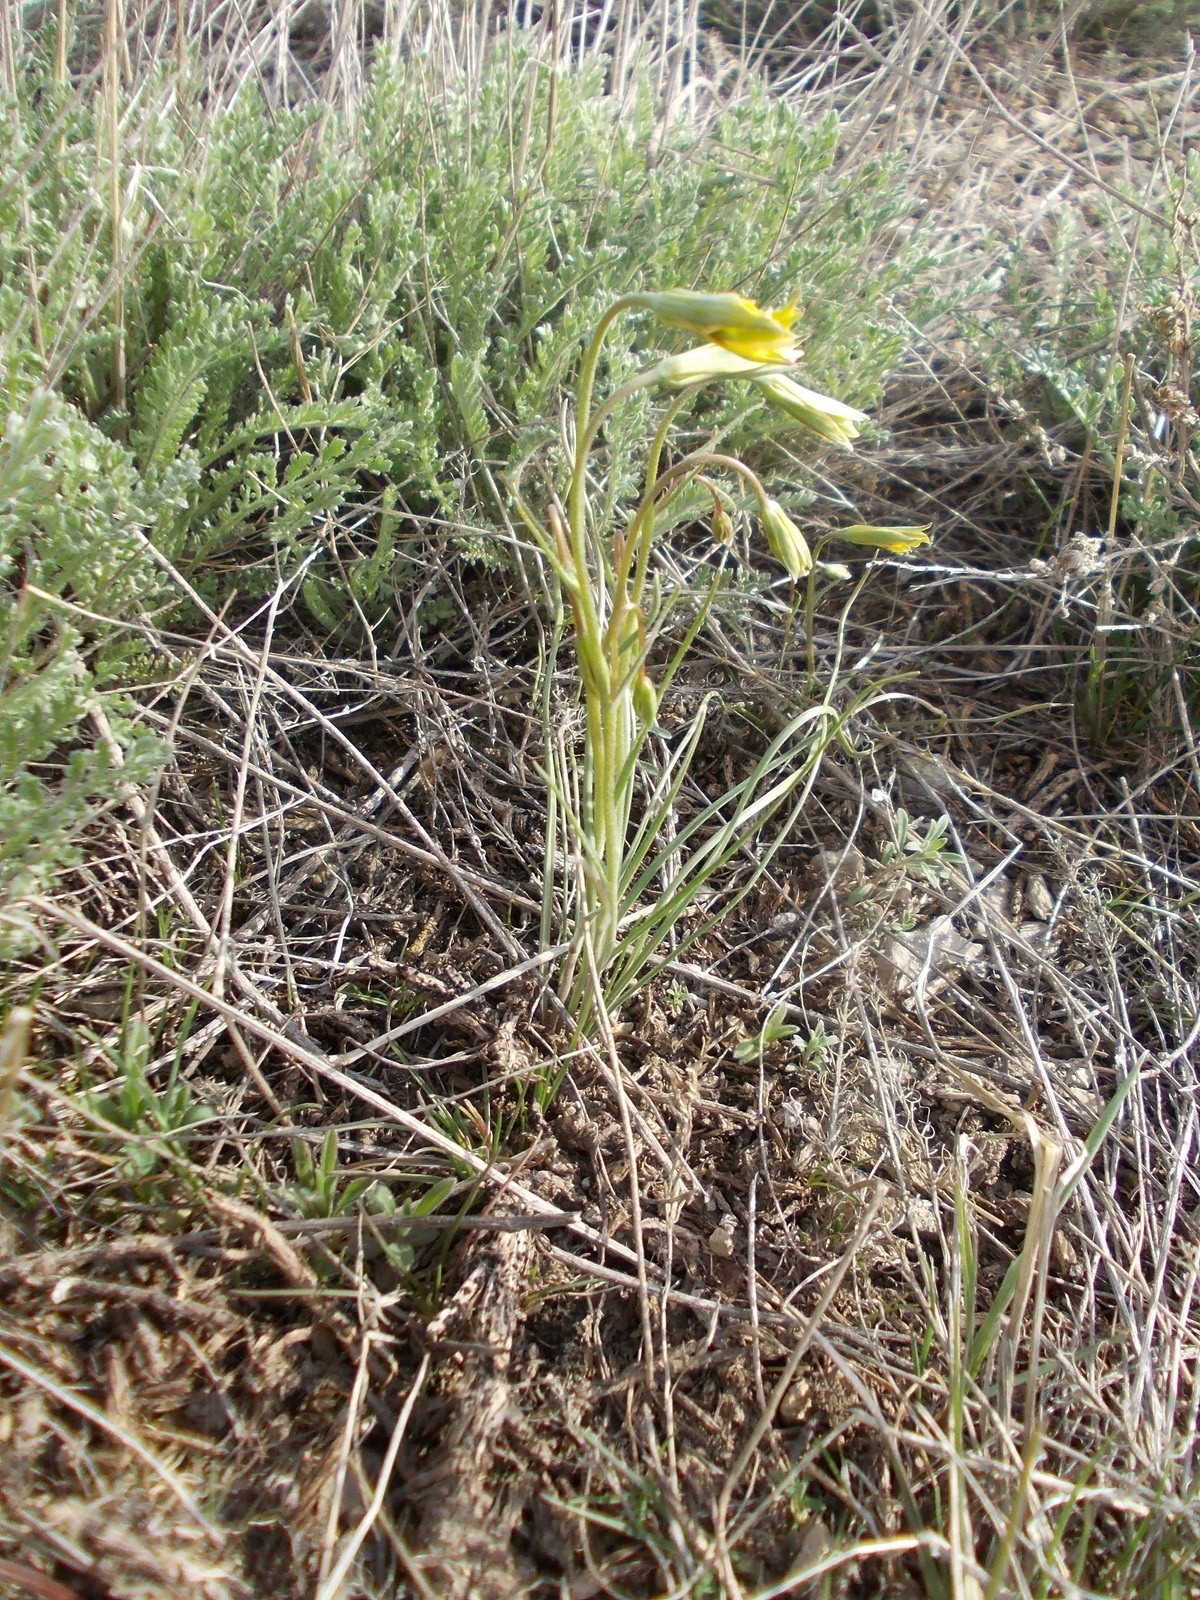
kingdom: Plantae
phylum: Tracheophyta
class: Liliopsida
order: Liliales
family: Liliaceae
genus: Gagea
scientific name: Gagea bulbifera
